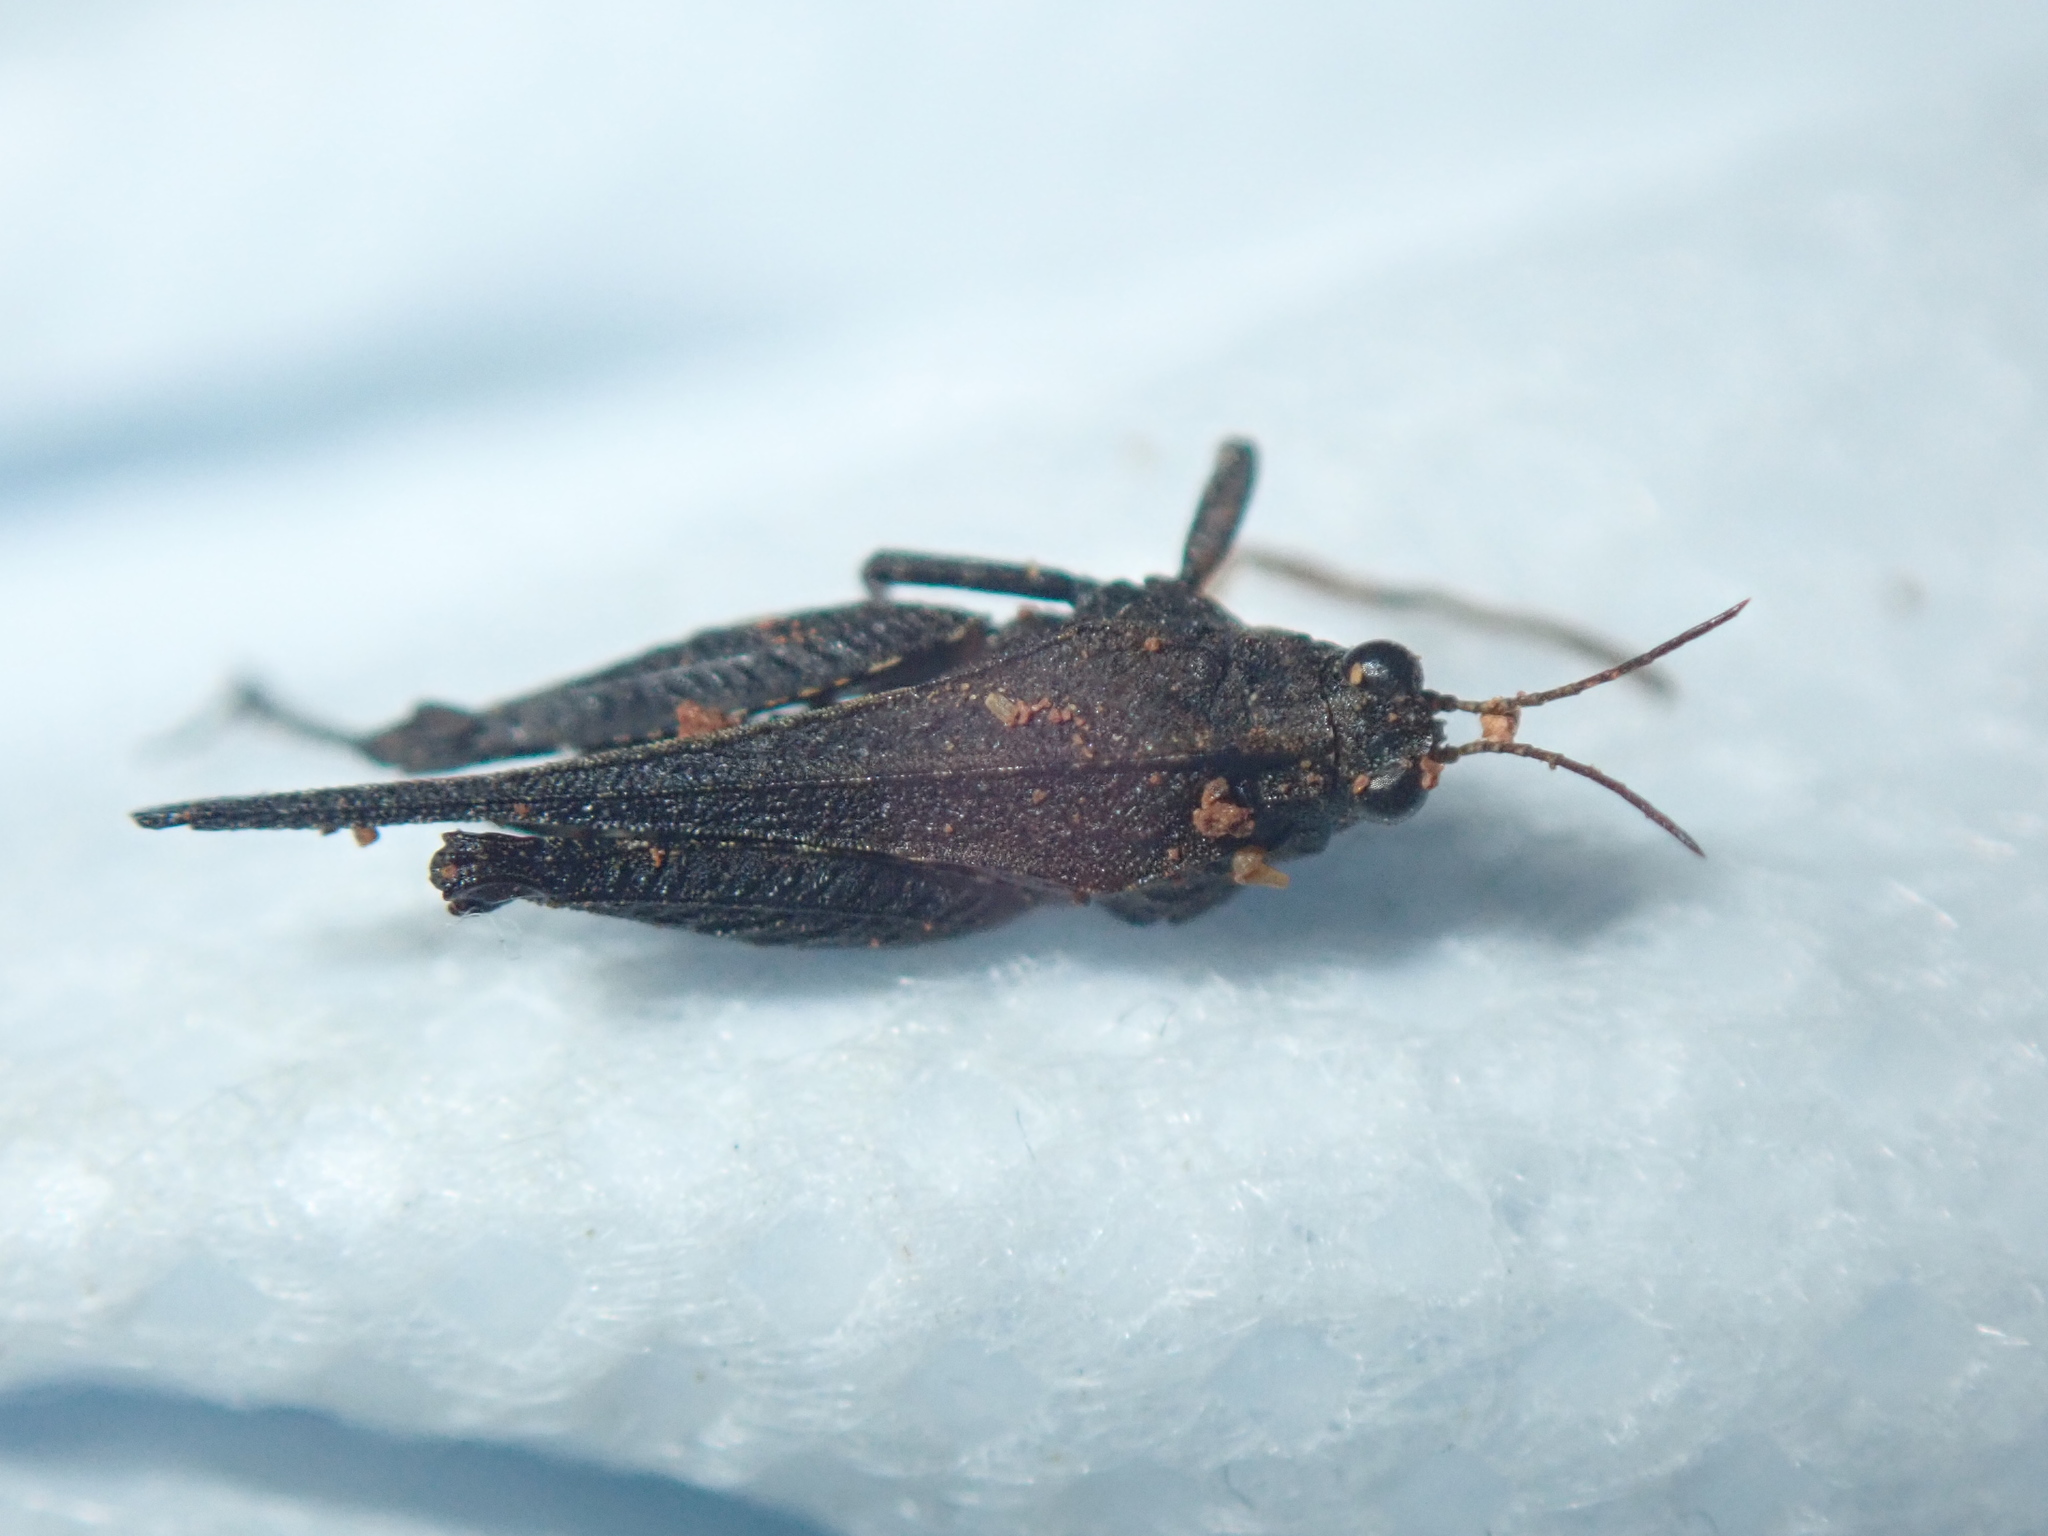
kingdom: Animalia
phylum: Arthropoda
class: Insecta
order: Orthoptera
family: Tetrigidae
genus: Tetrix
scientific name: Tetrix ceperoi
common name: Cepero's ground-hopper
